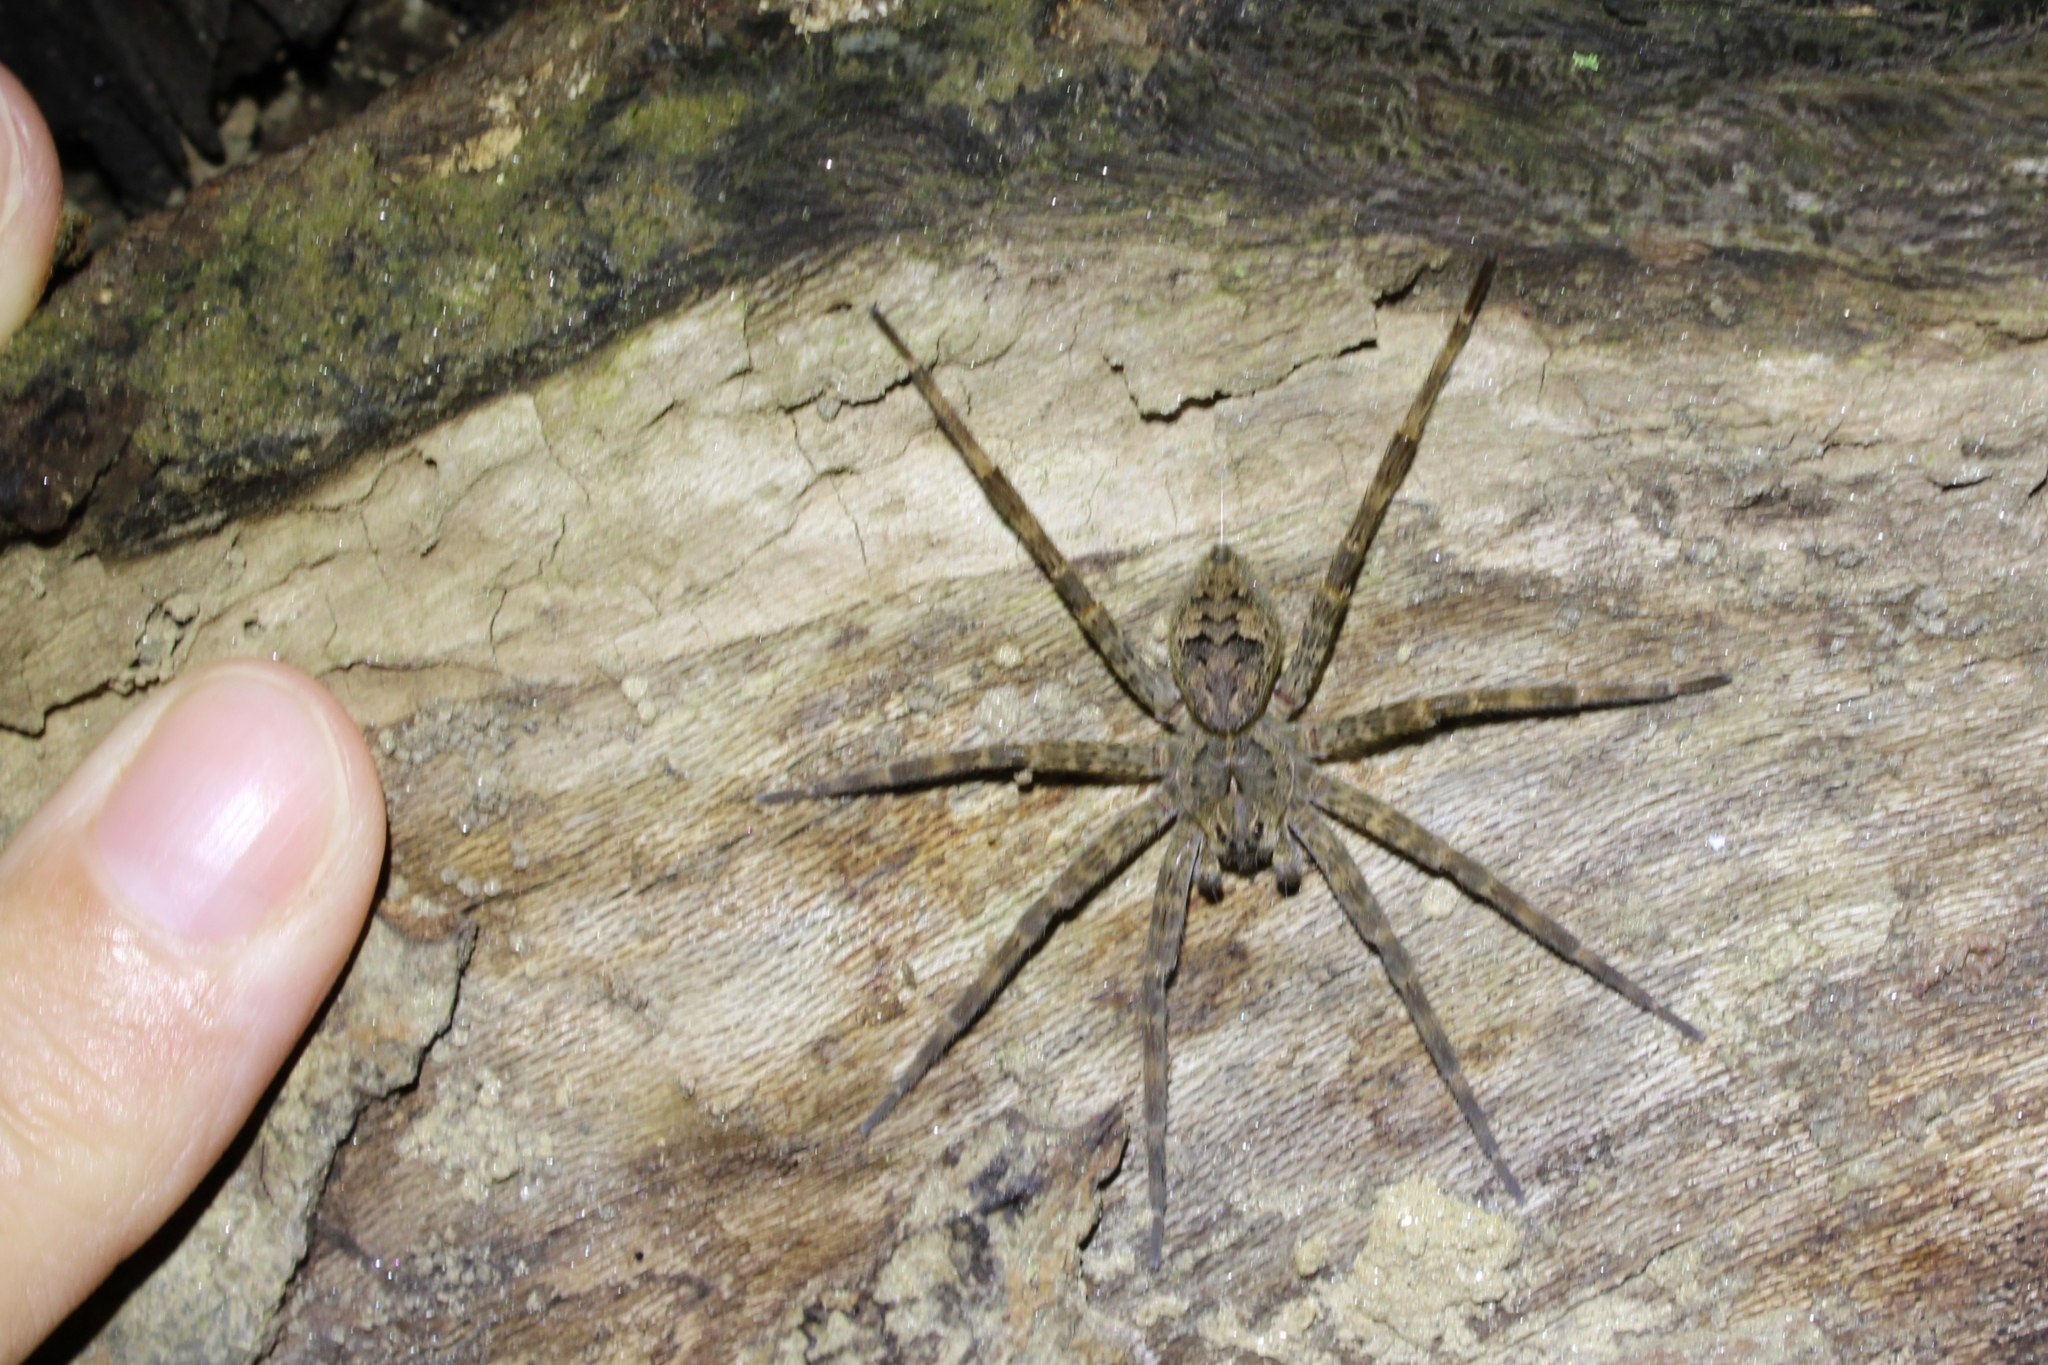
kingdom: Animalia
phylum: Arthropoda
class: Arachnida
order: Araneae
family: Pisauridae
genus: Dolomedes
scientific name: Dolomedes tenebrosus
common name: Dark fishing spider
